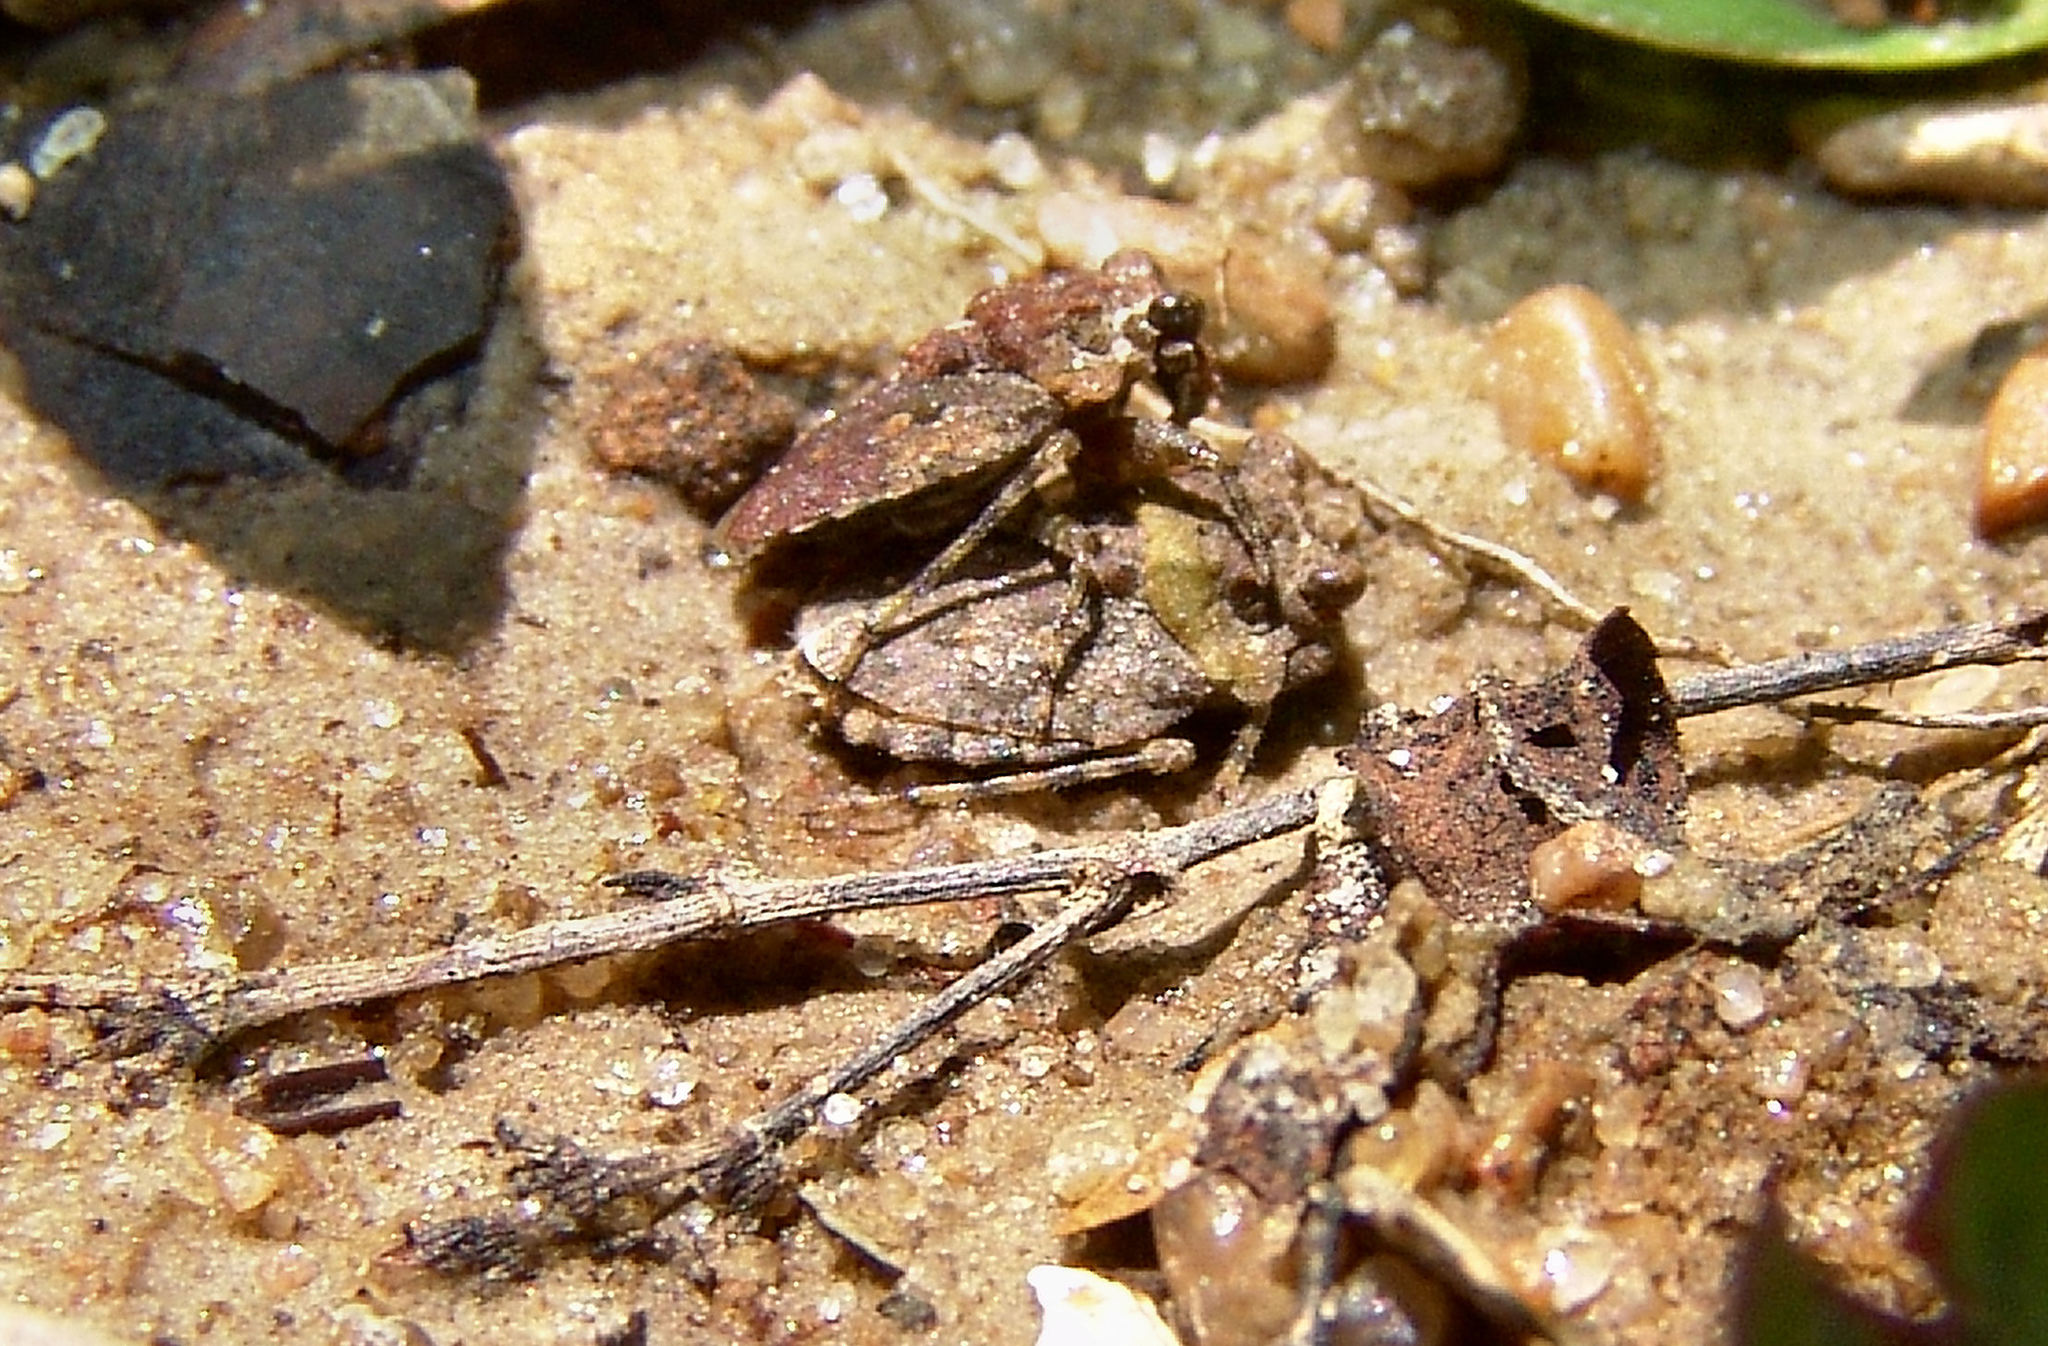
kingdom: Animalia
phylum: Arthropoda
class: Insecta
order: Hemiptera
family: Gelastocoridae
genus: Gelastocoris
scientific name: Gelastocoris oculatus
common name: Toad bug
